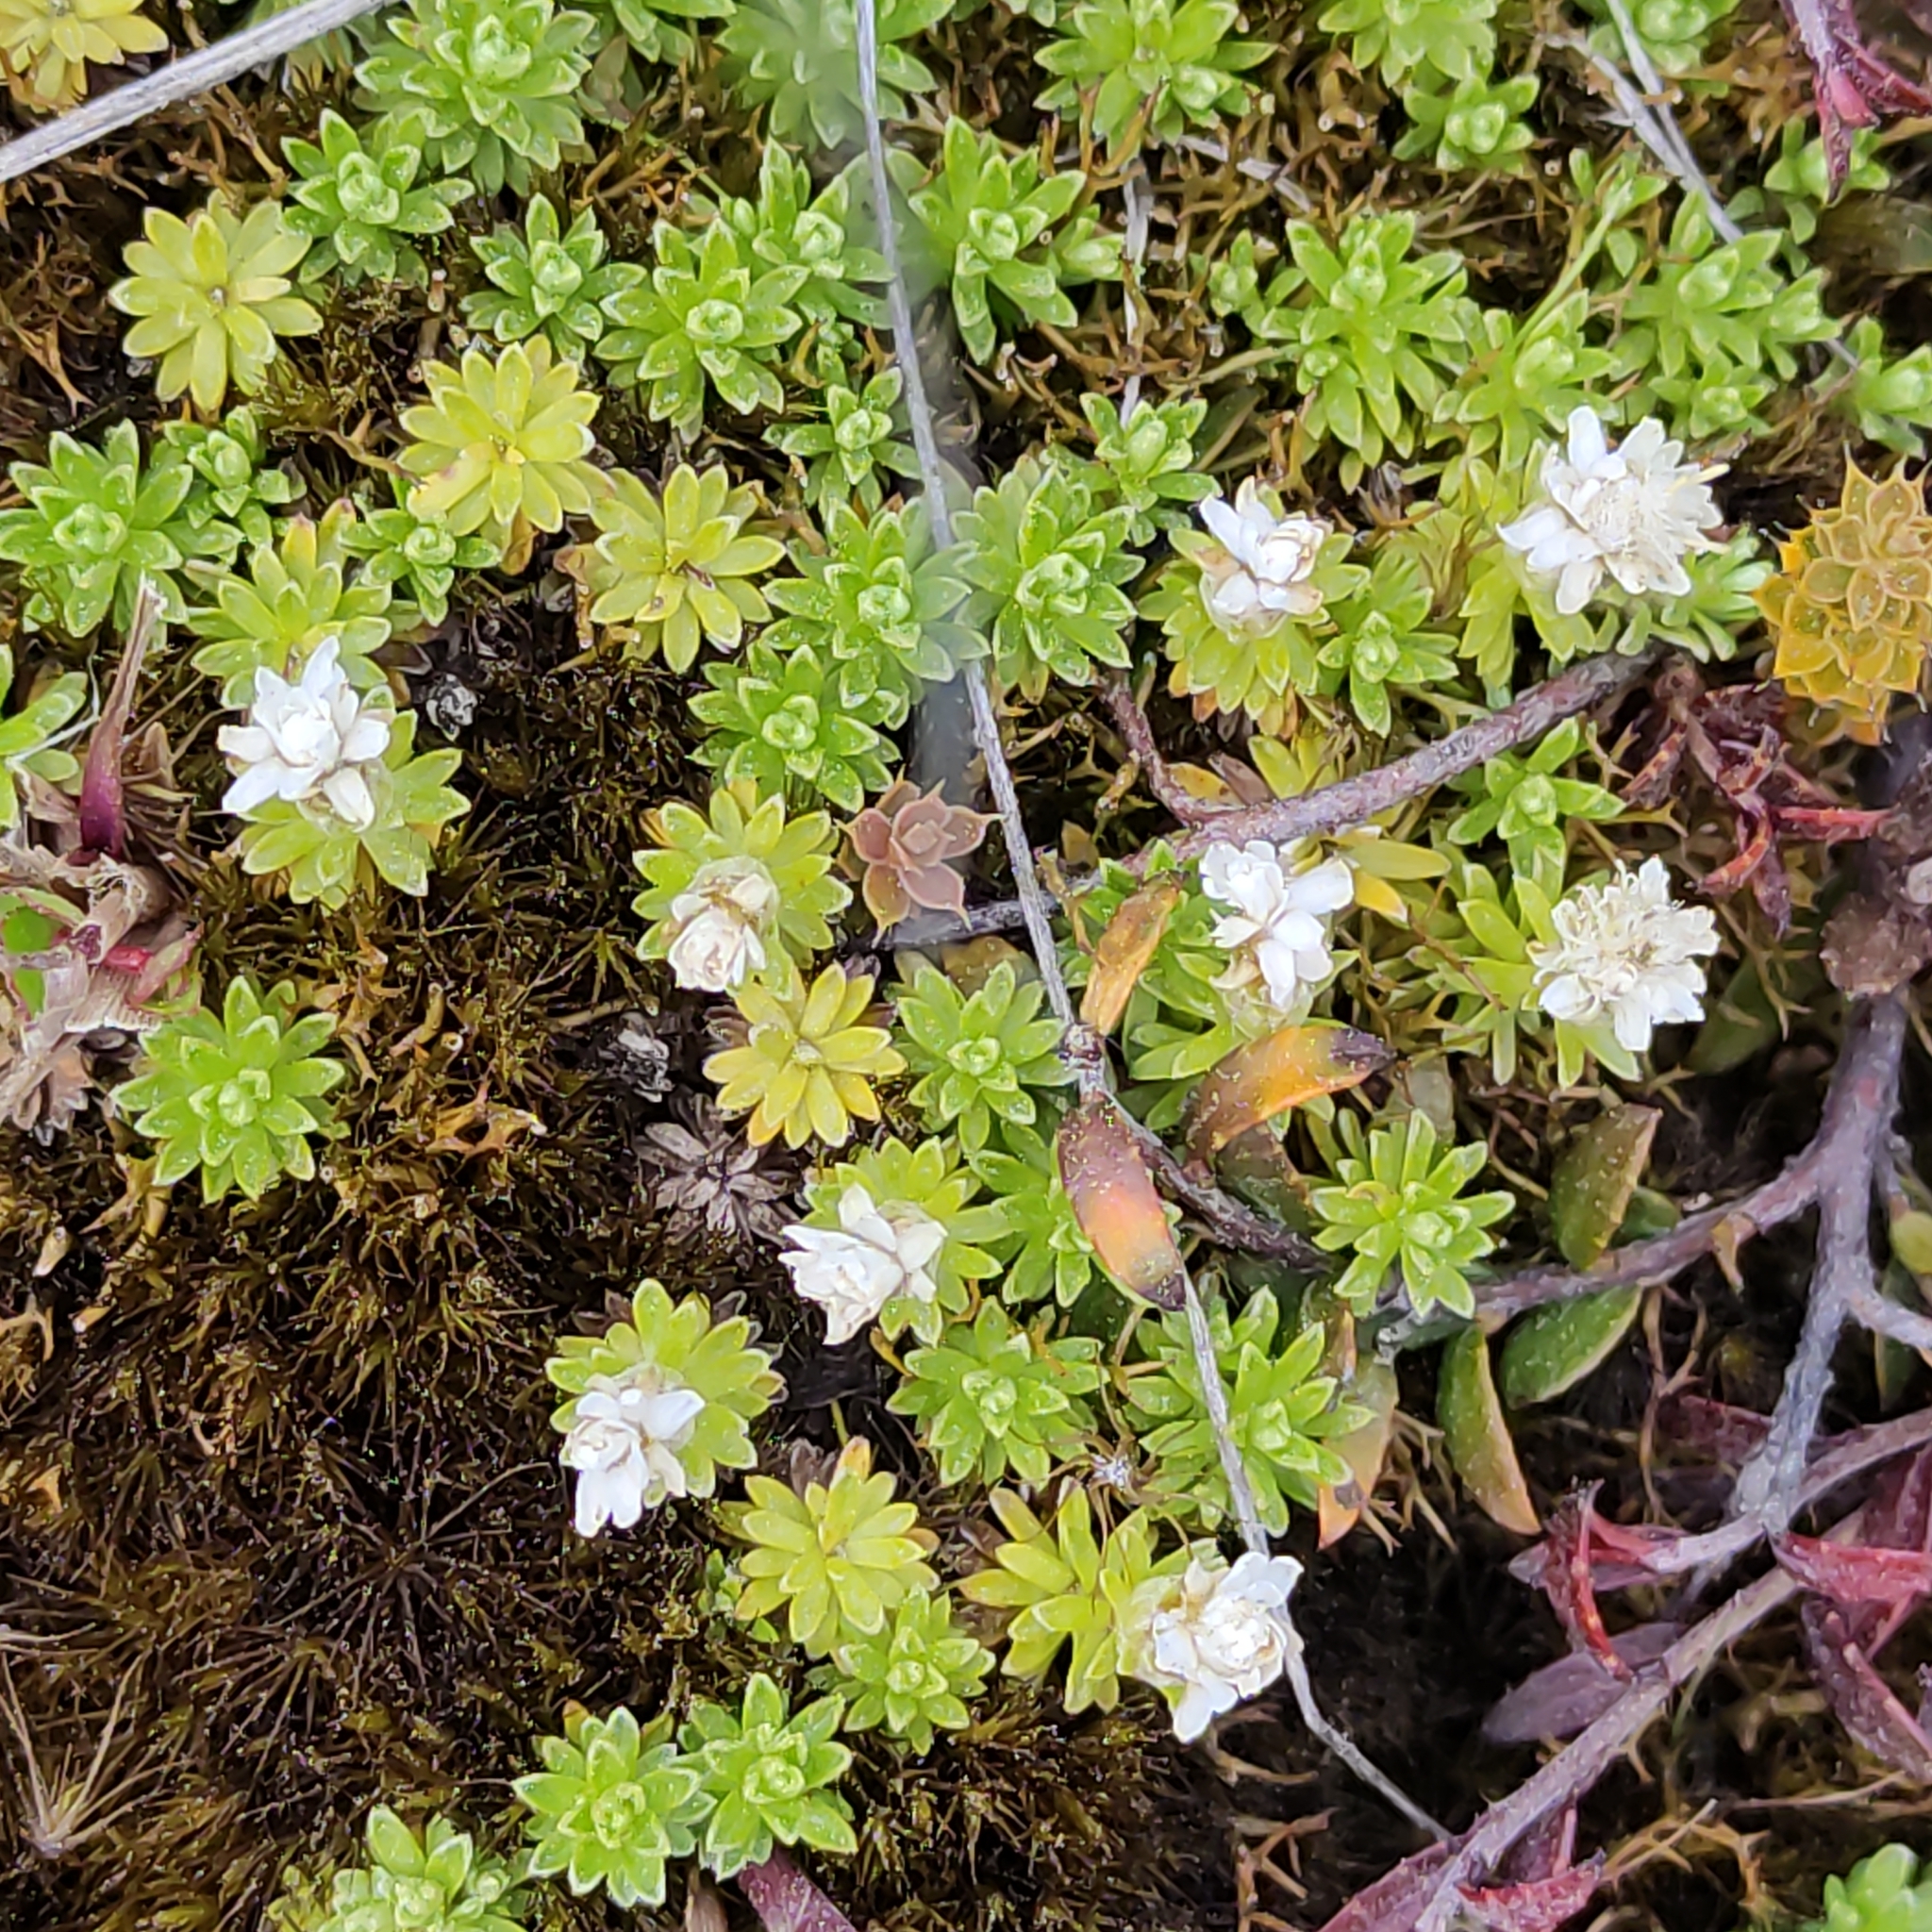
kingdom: Plantae
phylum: Tracheophyta
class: Magnoliopsida
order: Asterales
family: Asteraceae
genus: Raoulia
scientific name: Raoulia subsericea
